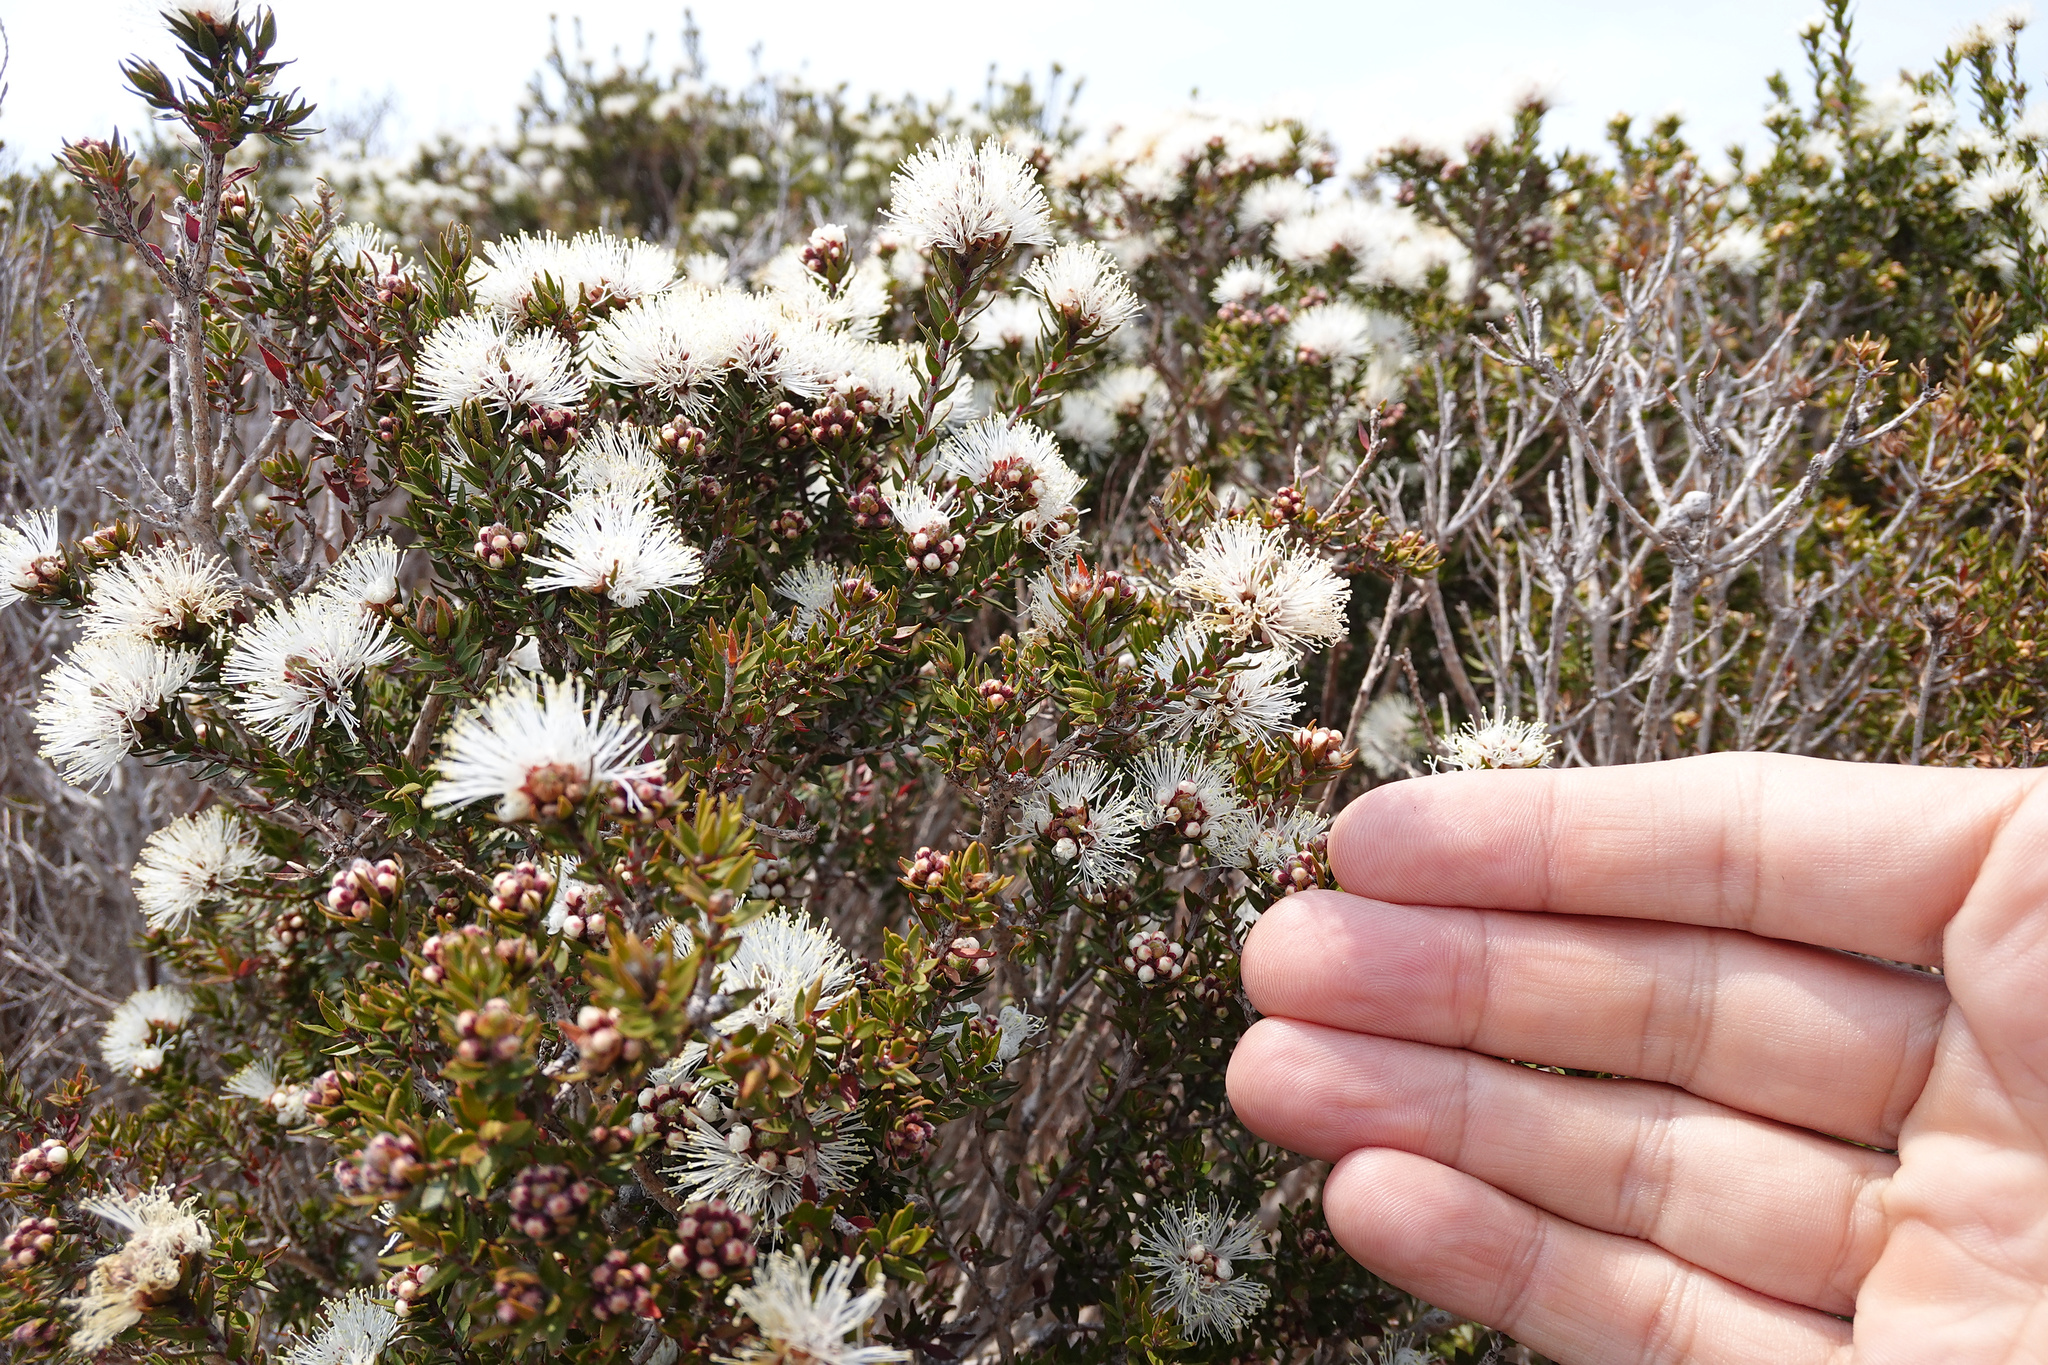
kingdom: Plantae
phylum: Tracheophyta
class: Magnoliopsida
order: Myrtales
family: Myrtaceae
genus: Melaleuca
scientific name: Melaleuca squamea
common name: Swamp melaleuca
